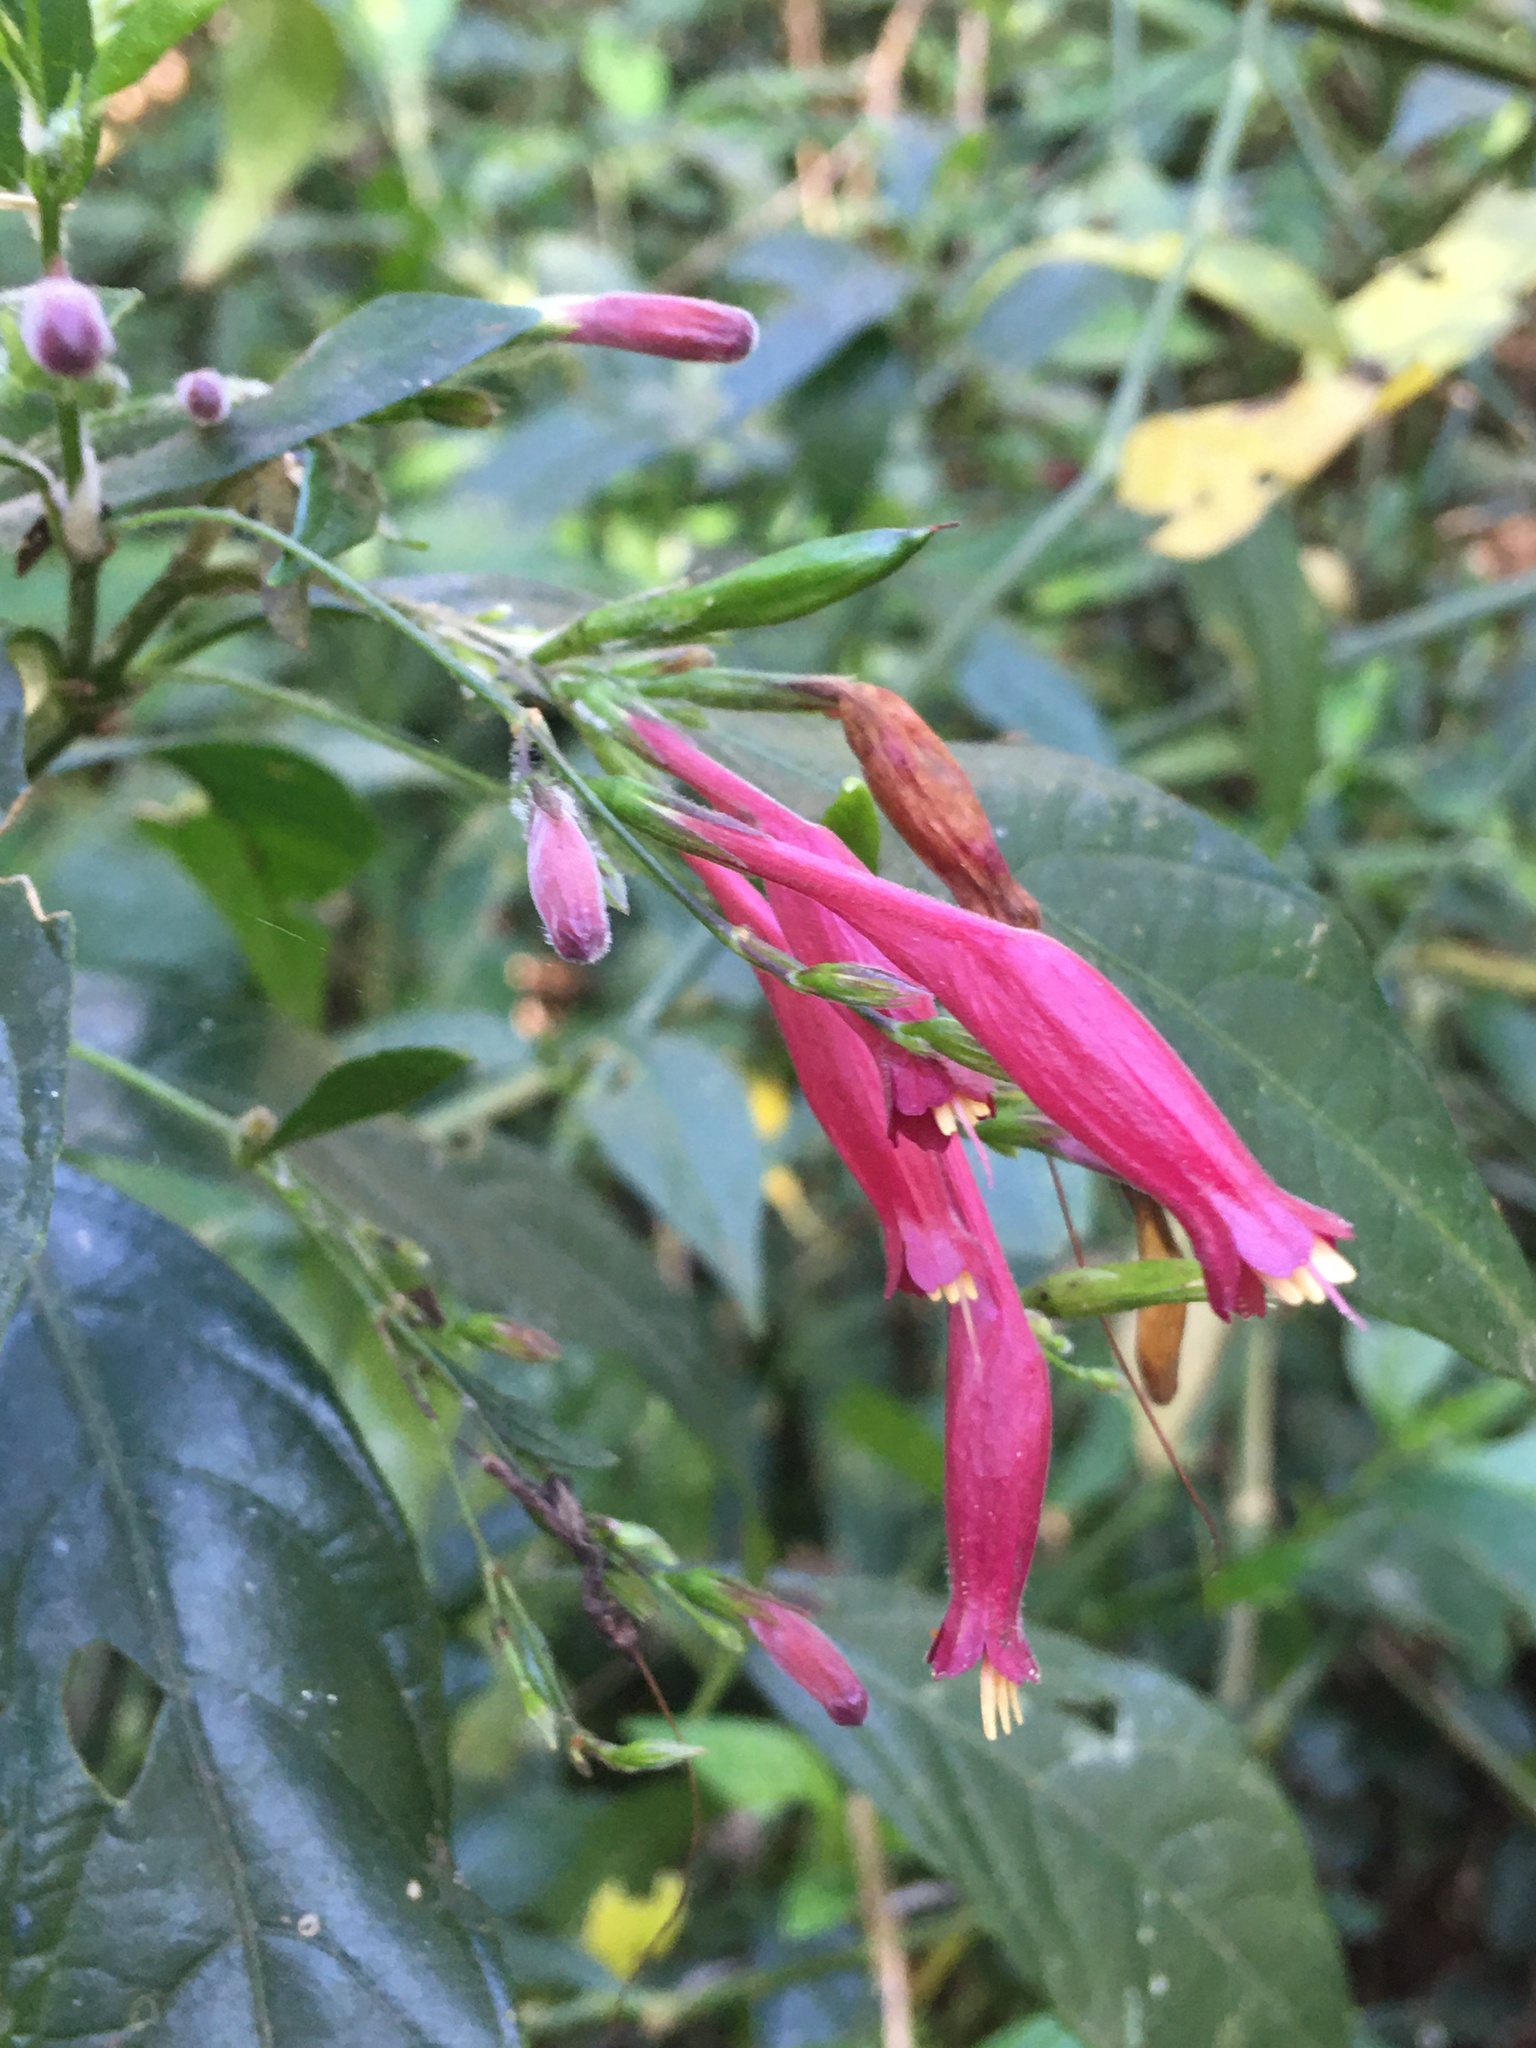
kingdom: Plantae
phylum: Tracheophyta
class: Magnoliopsida
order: Lamiales
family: Acanthaceae
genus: Ruellia
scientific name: Ruellia angustiflora
